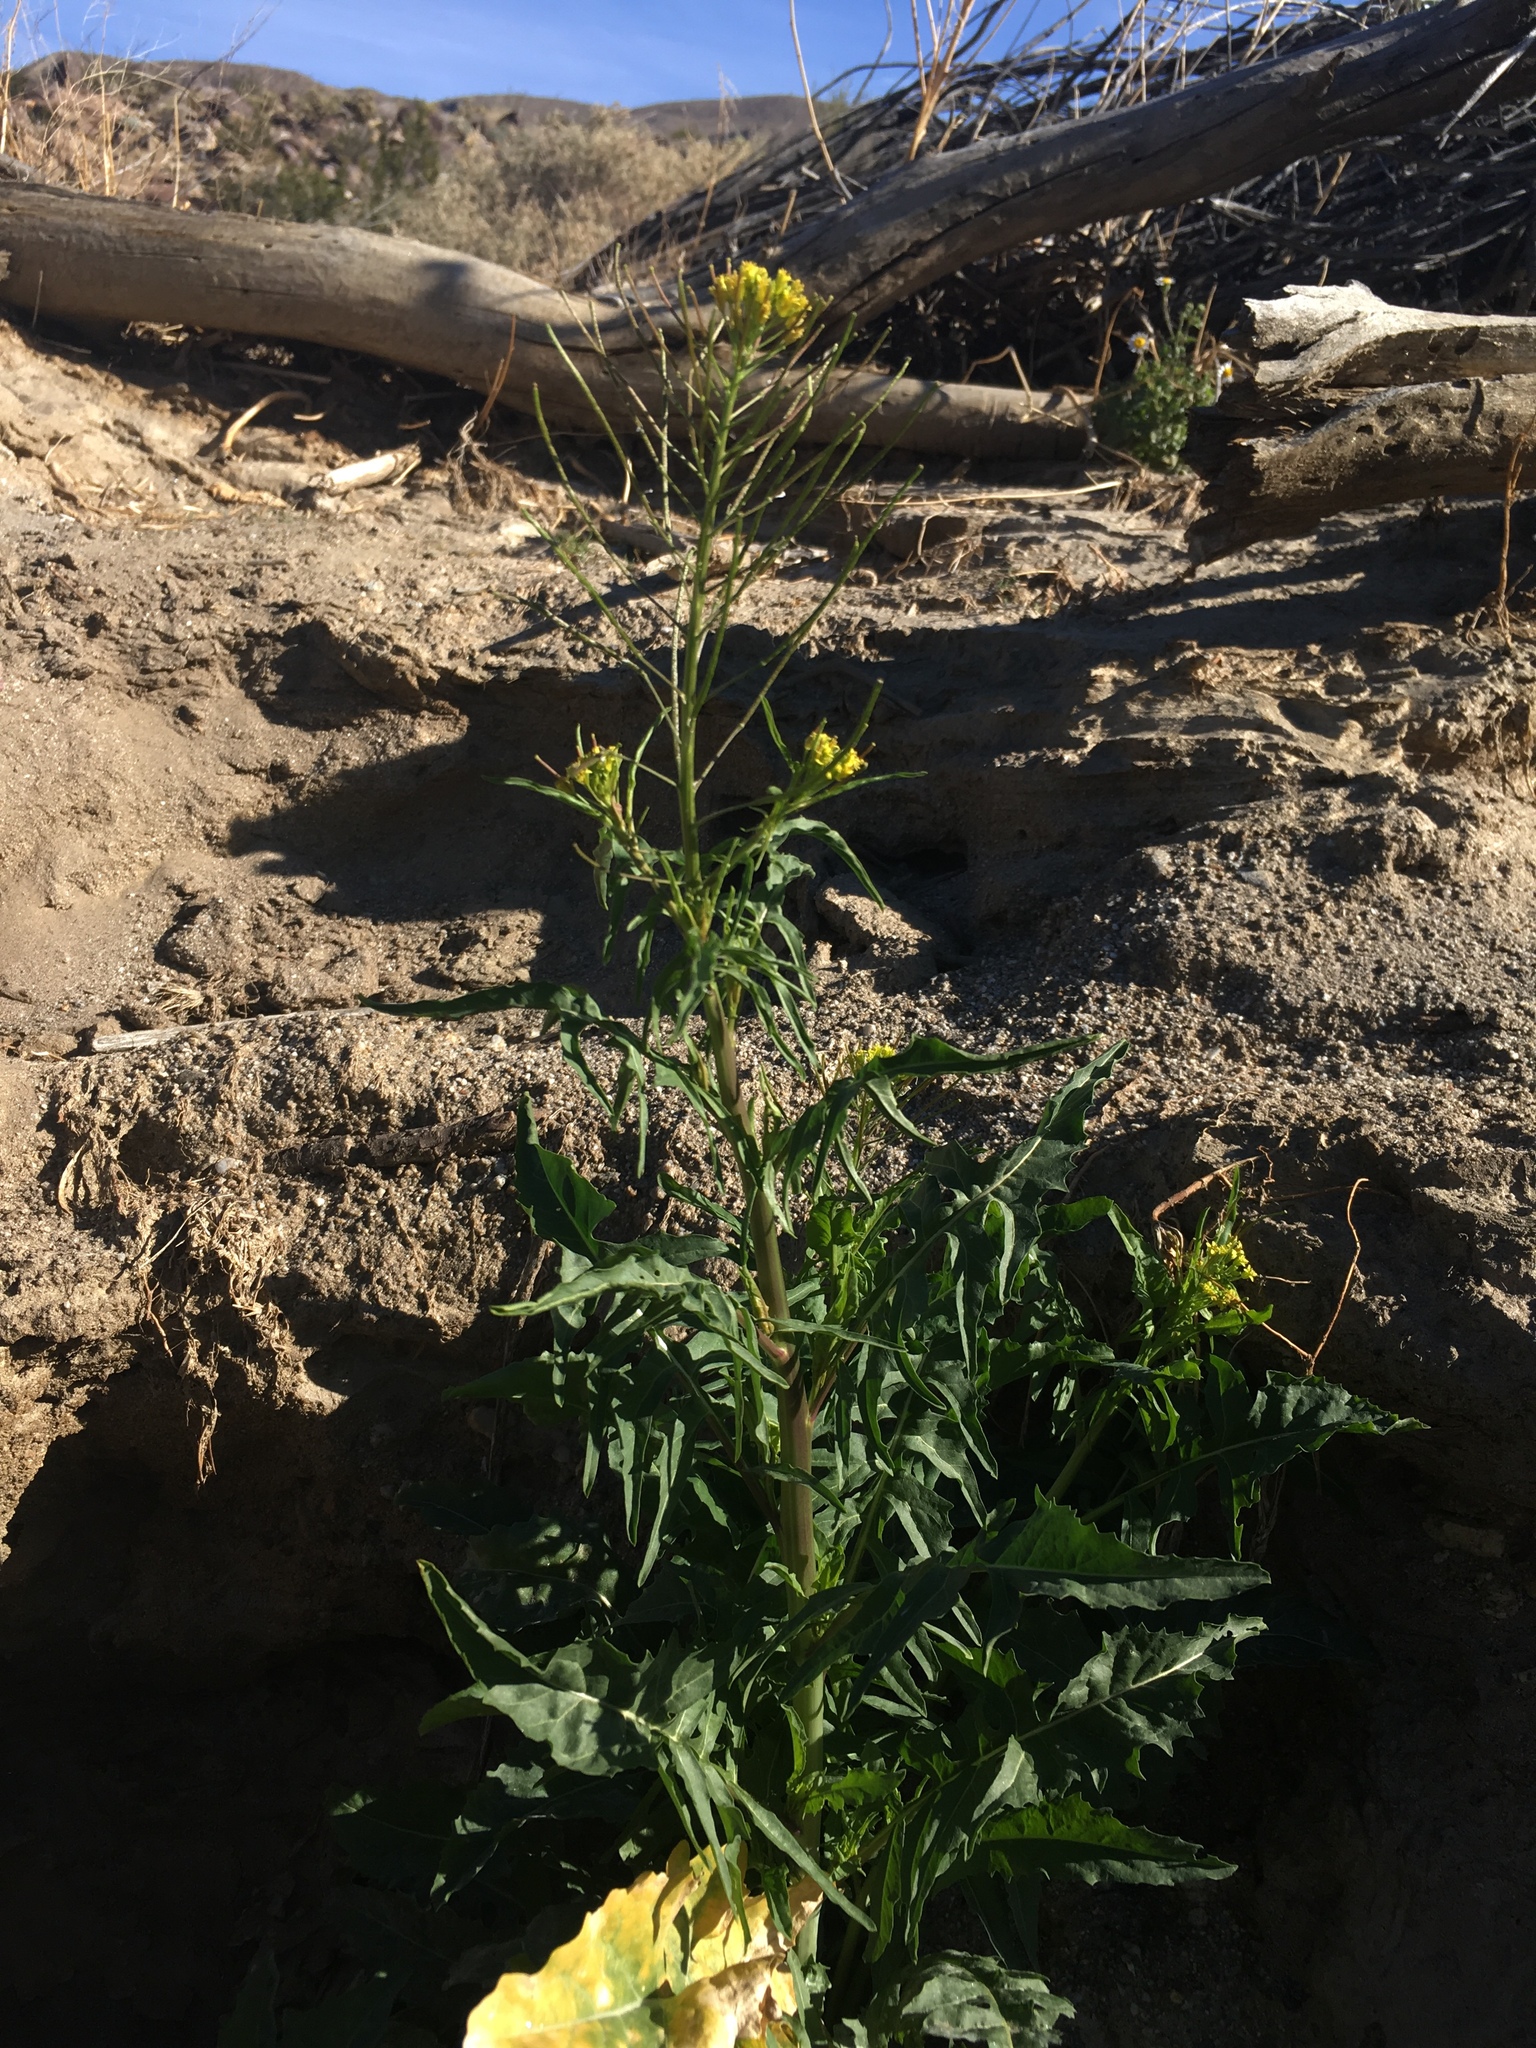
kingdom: Plantae
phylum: Tracheophyta
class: Magnoliopsida
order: Brassicales
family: Brassicaceae
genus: Sisymbrium
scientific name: Sisymbrium irio
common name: London rocket
